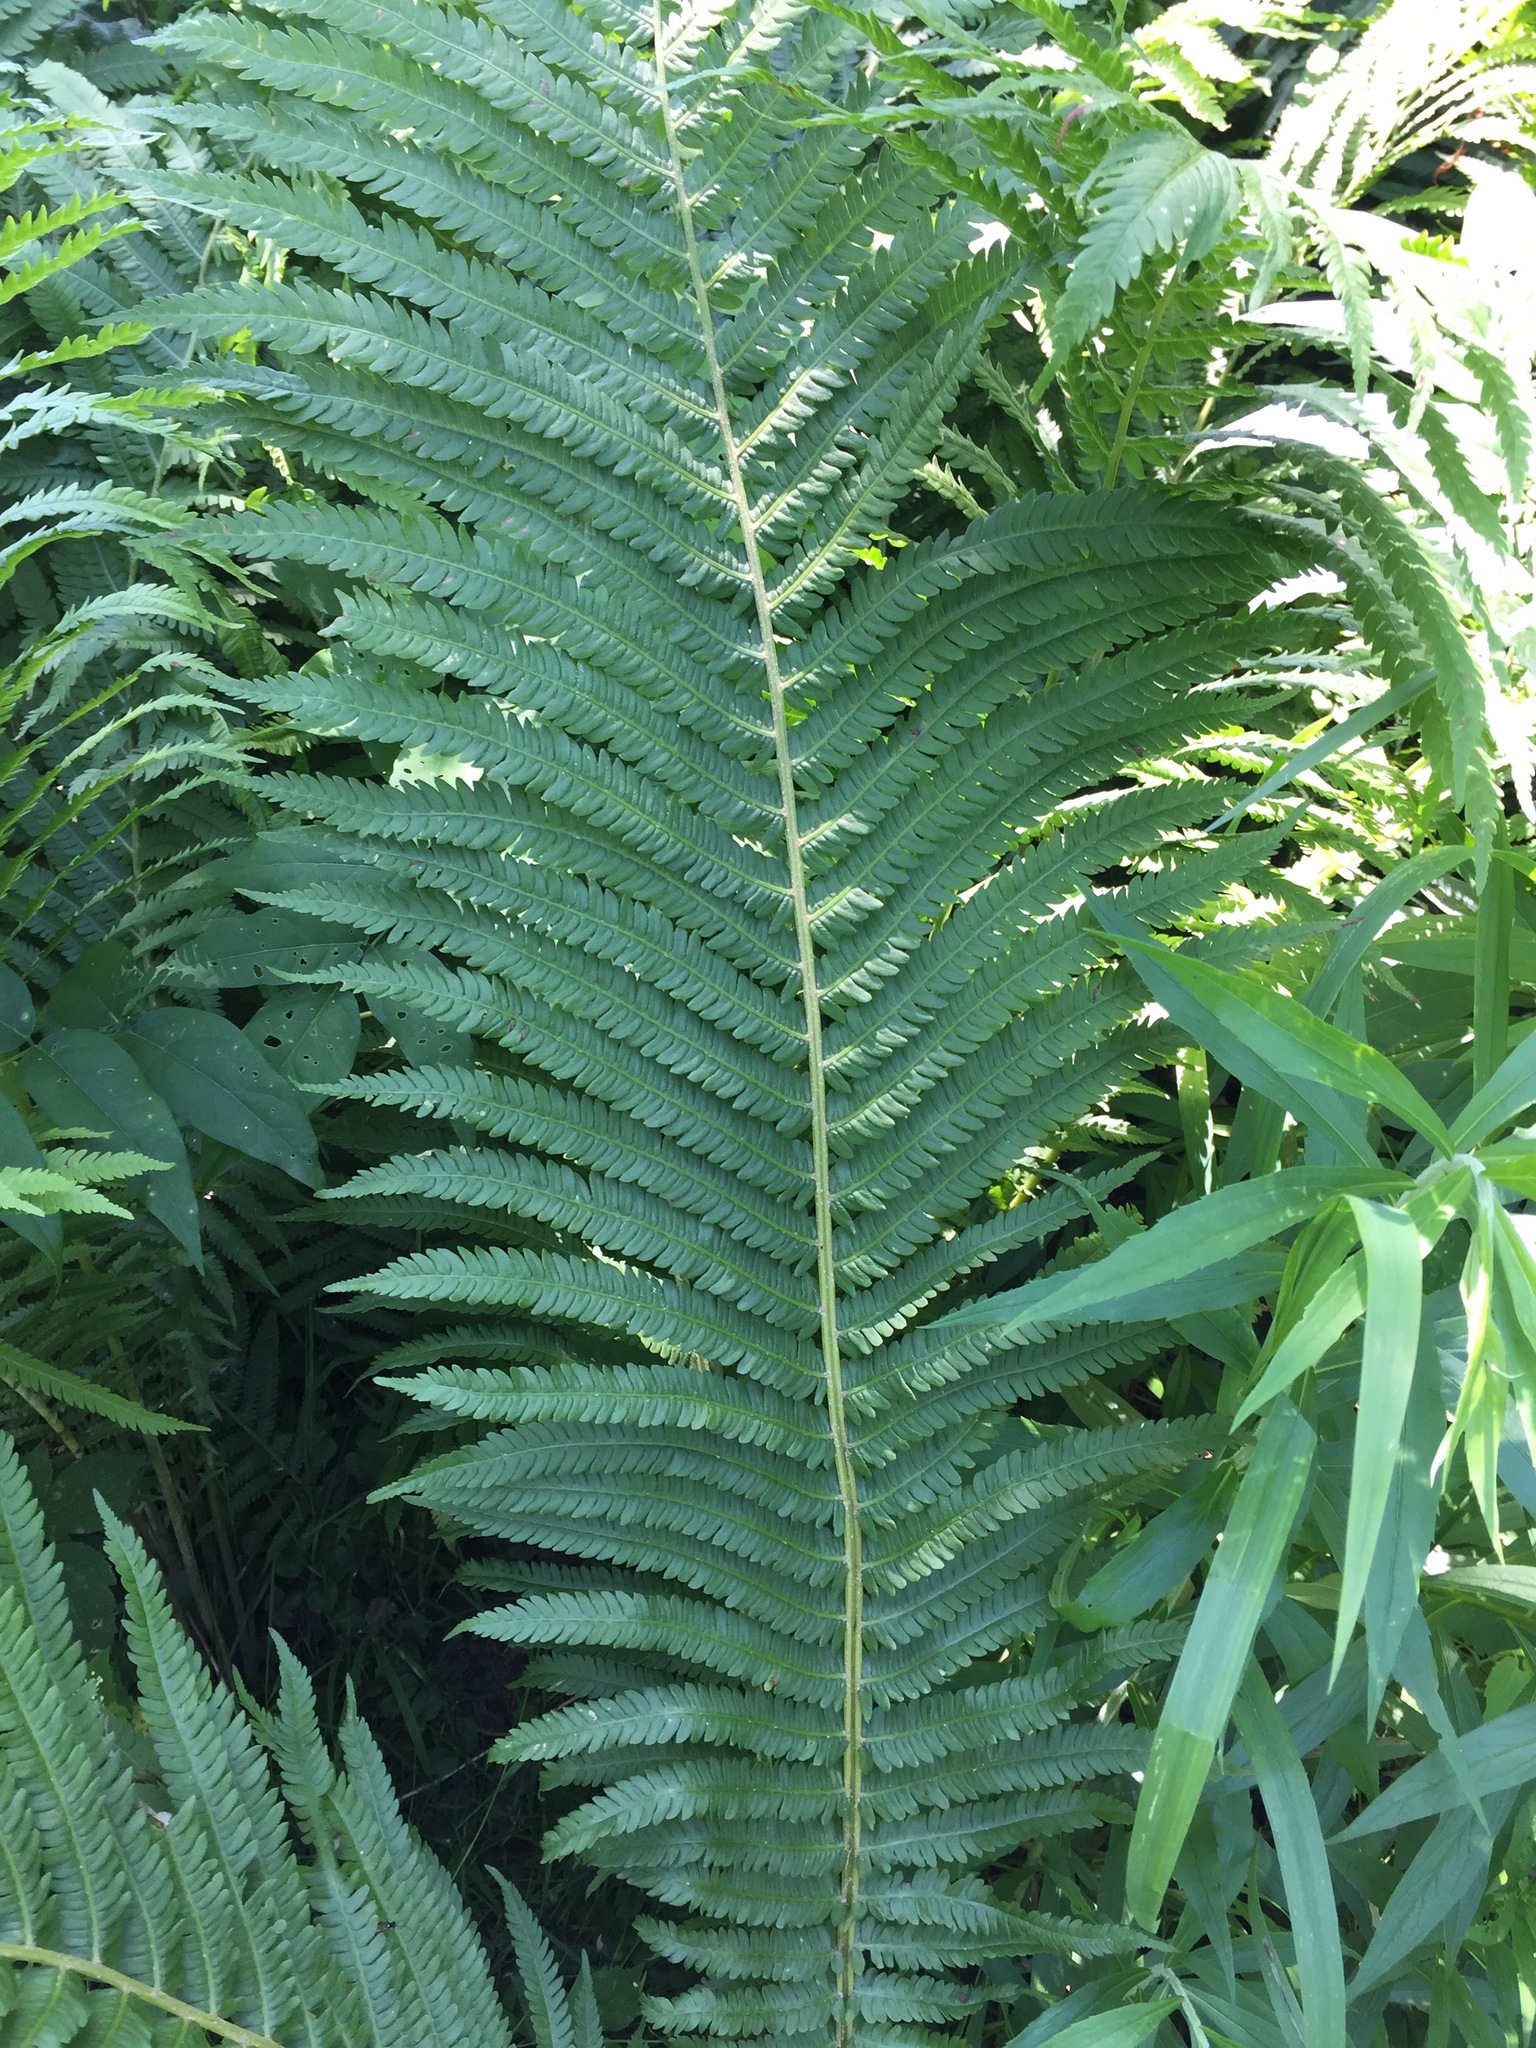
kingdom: Plantae
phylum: Tracheophyta
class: Polypodiopsida
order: Polypodiales
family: Onocleaceae
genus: Matteuccia
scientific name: Matteuccia struthiopteris
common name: Ostrich fern
